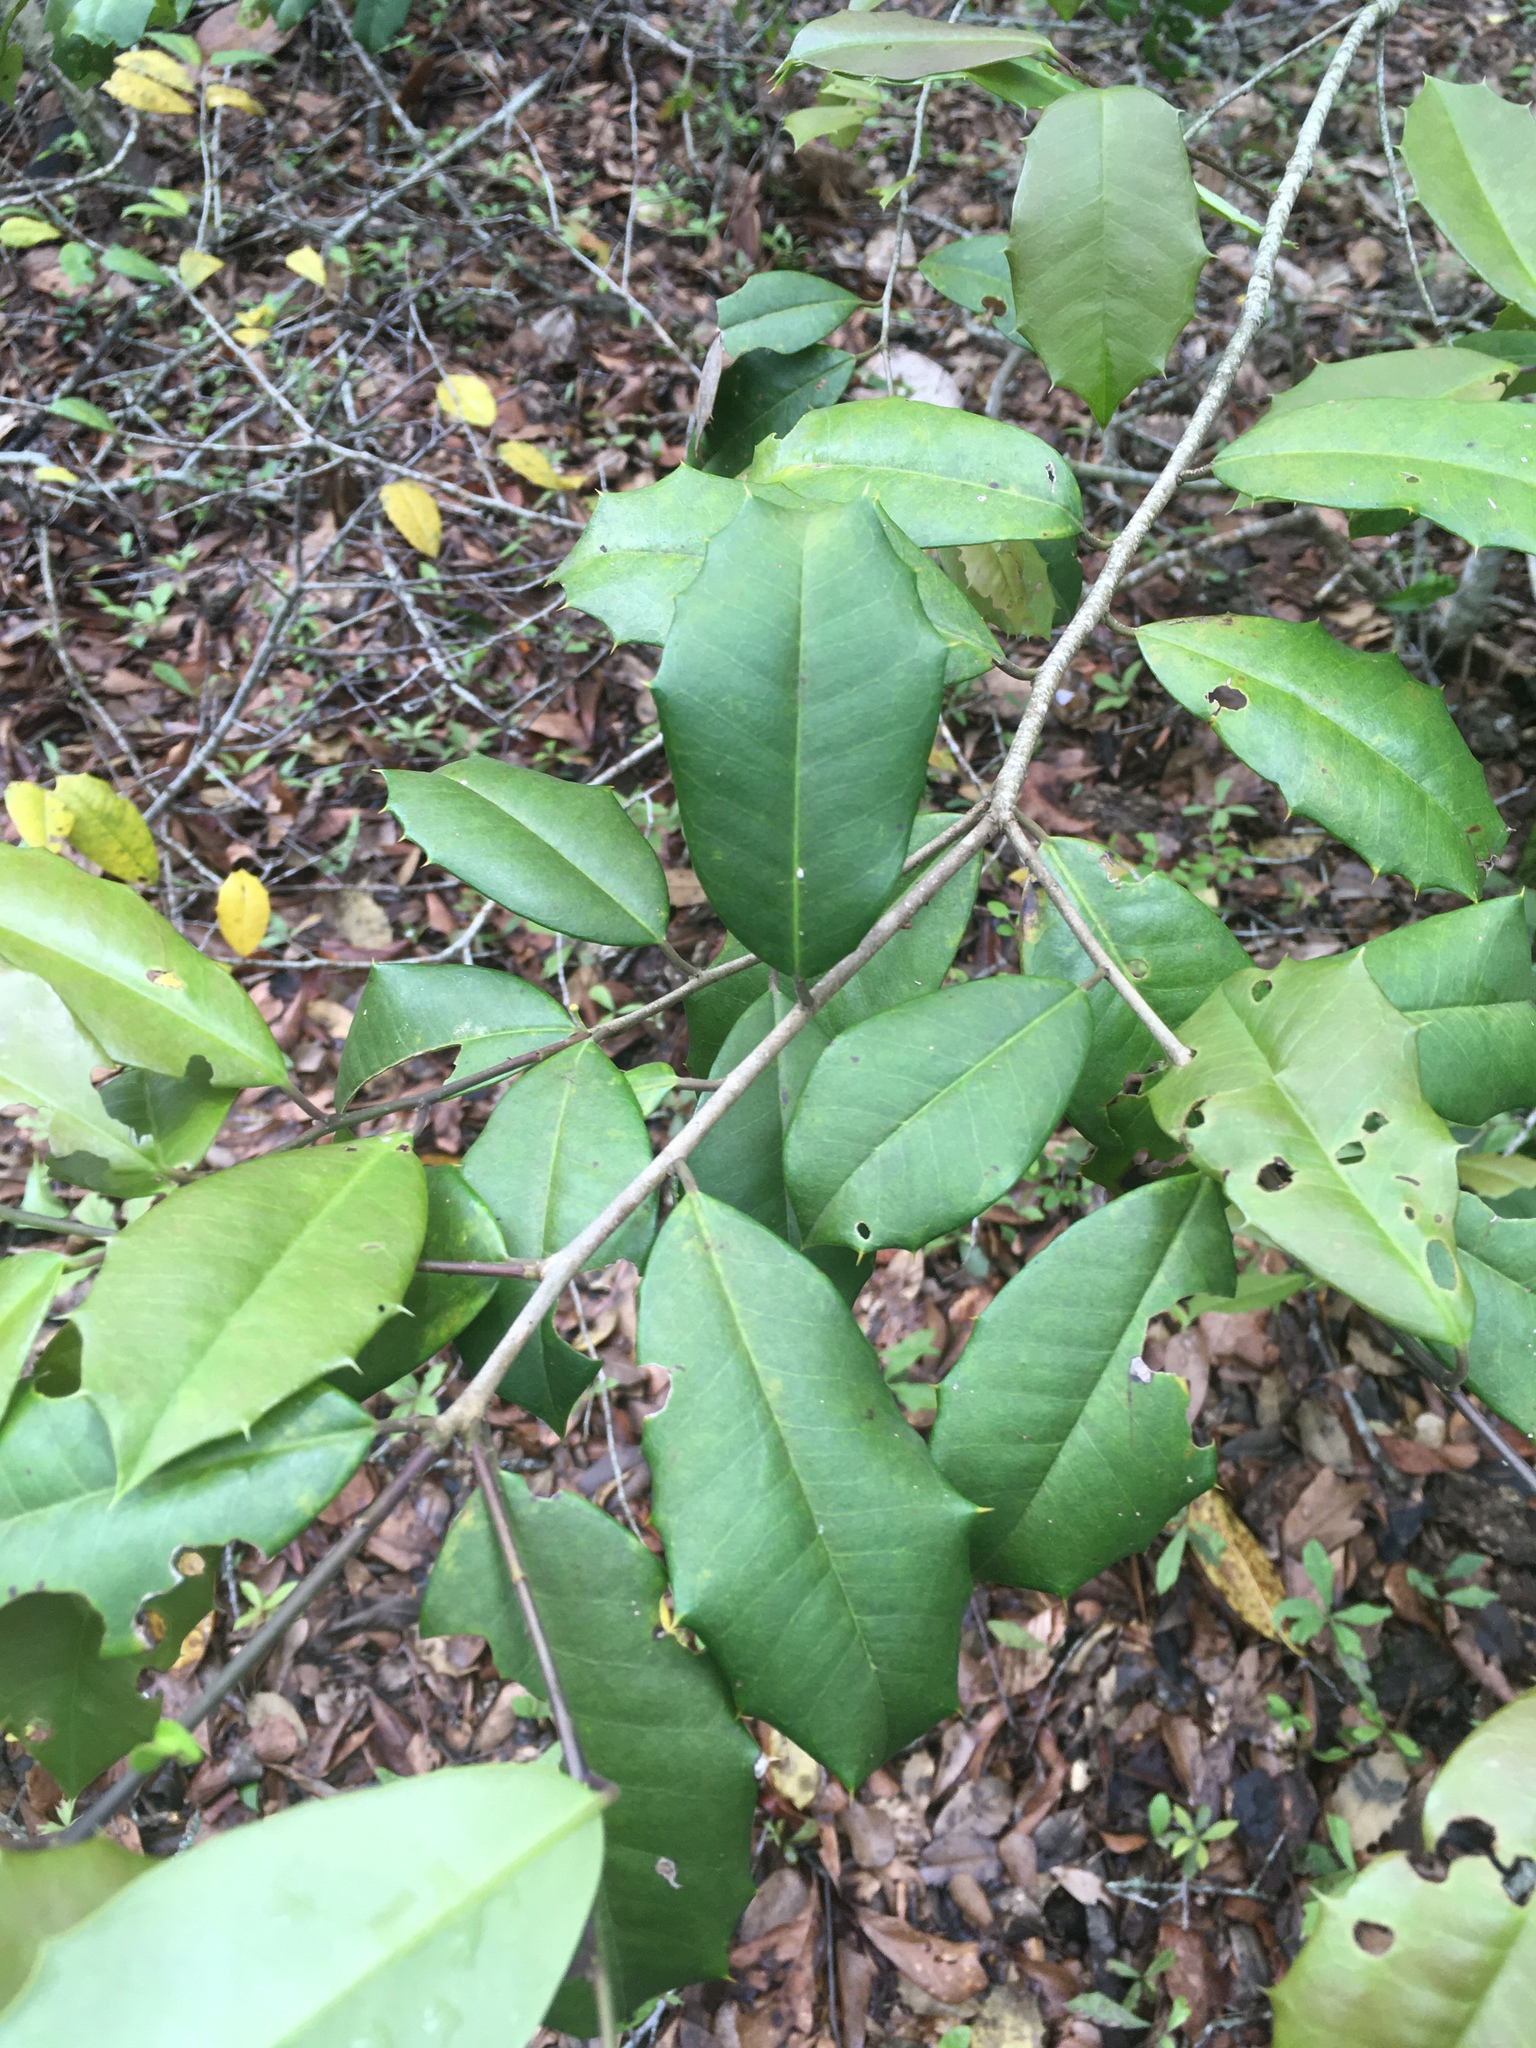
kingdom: Plantae
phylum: Tracheophyta
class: Magnoliopsida
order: Aquifoliales
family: Aquifoliaceae
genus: Ilex
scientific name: Ilex opaca
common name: American holly
